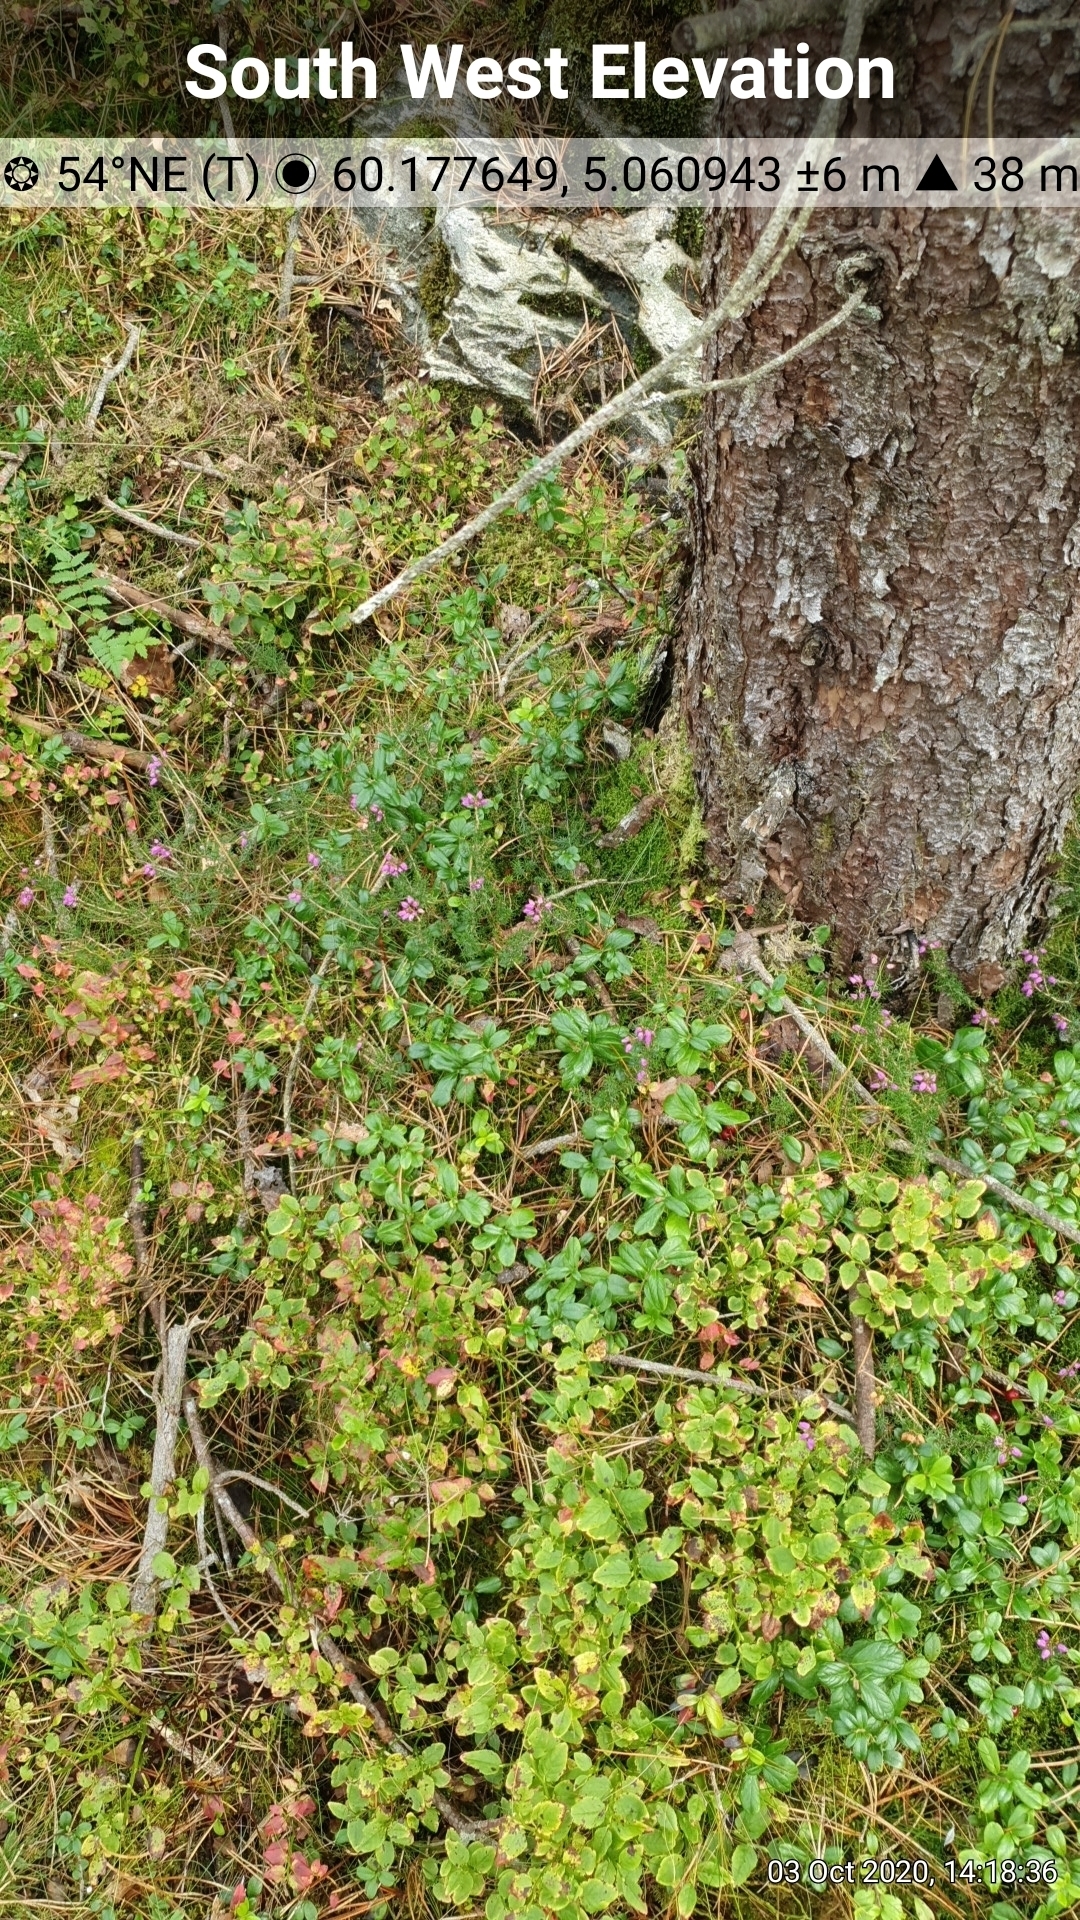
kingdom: Plantae
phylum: Tracheophyta
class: Magnoliopsida
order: Ericales
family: Ericaceae
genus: Vaccinium
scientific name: Vaccinium vitis-idaea
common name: Cowberry
